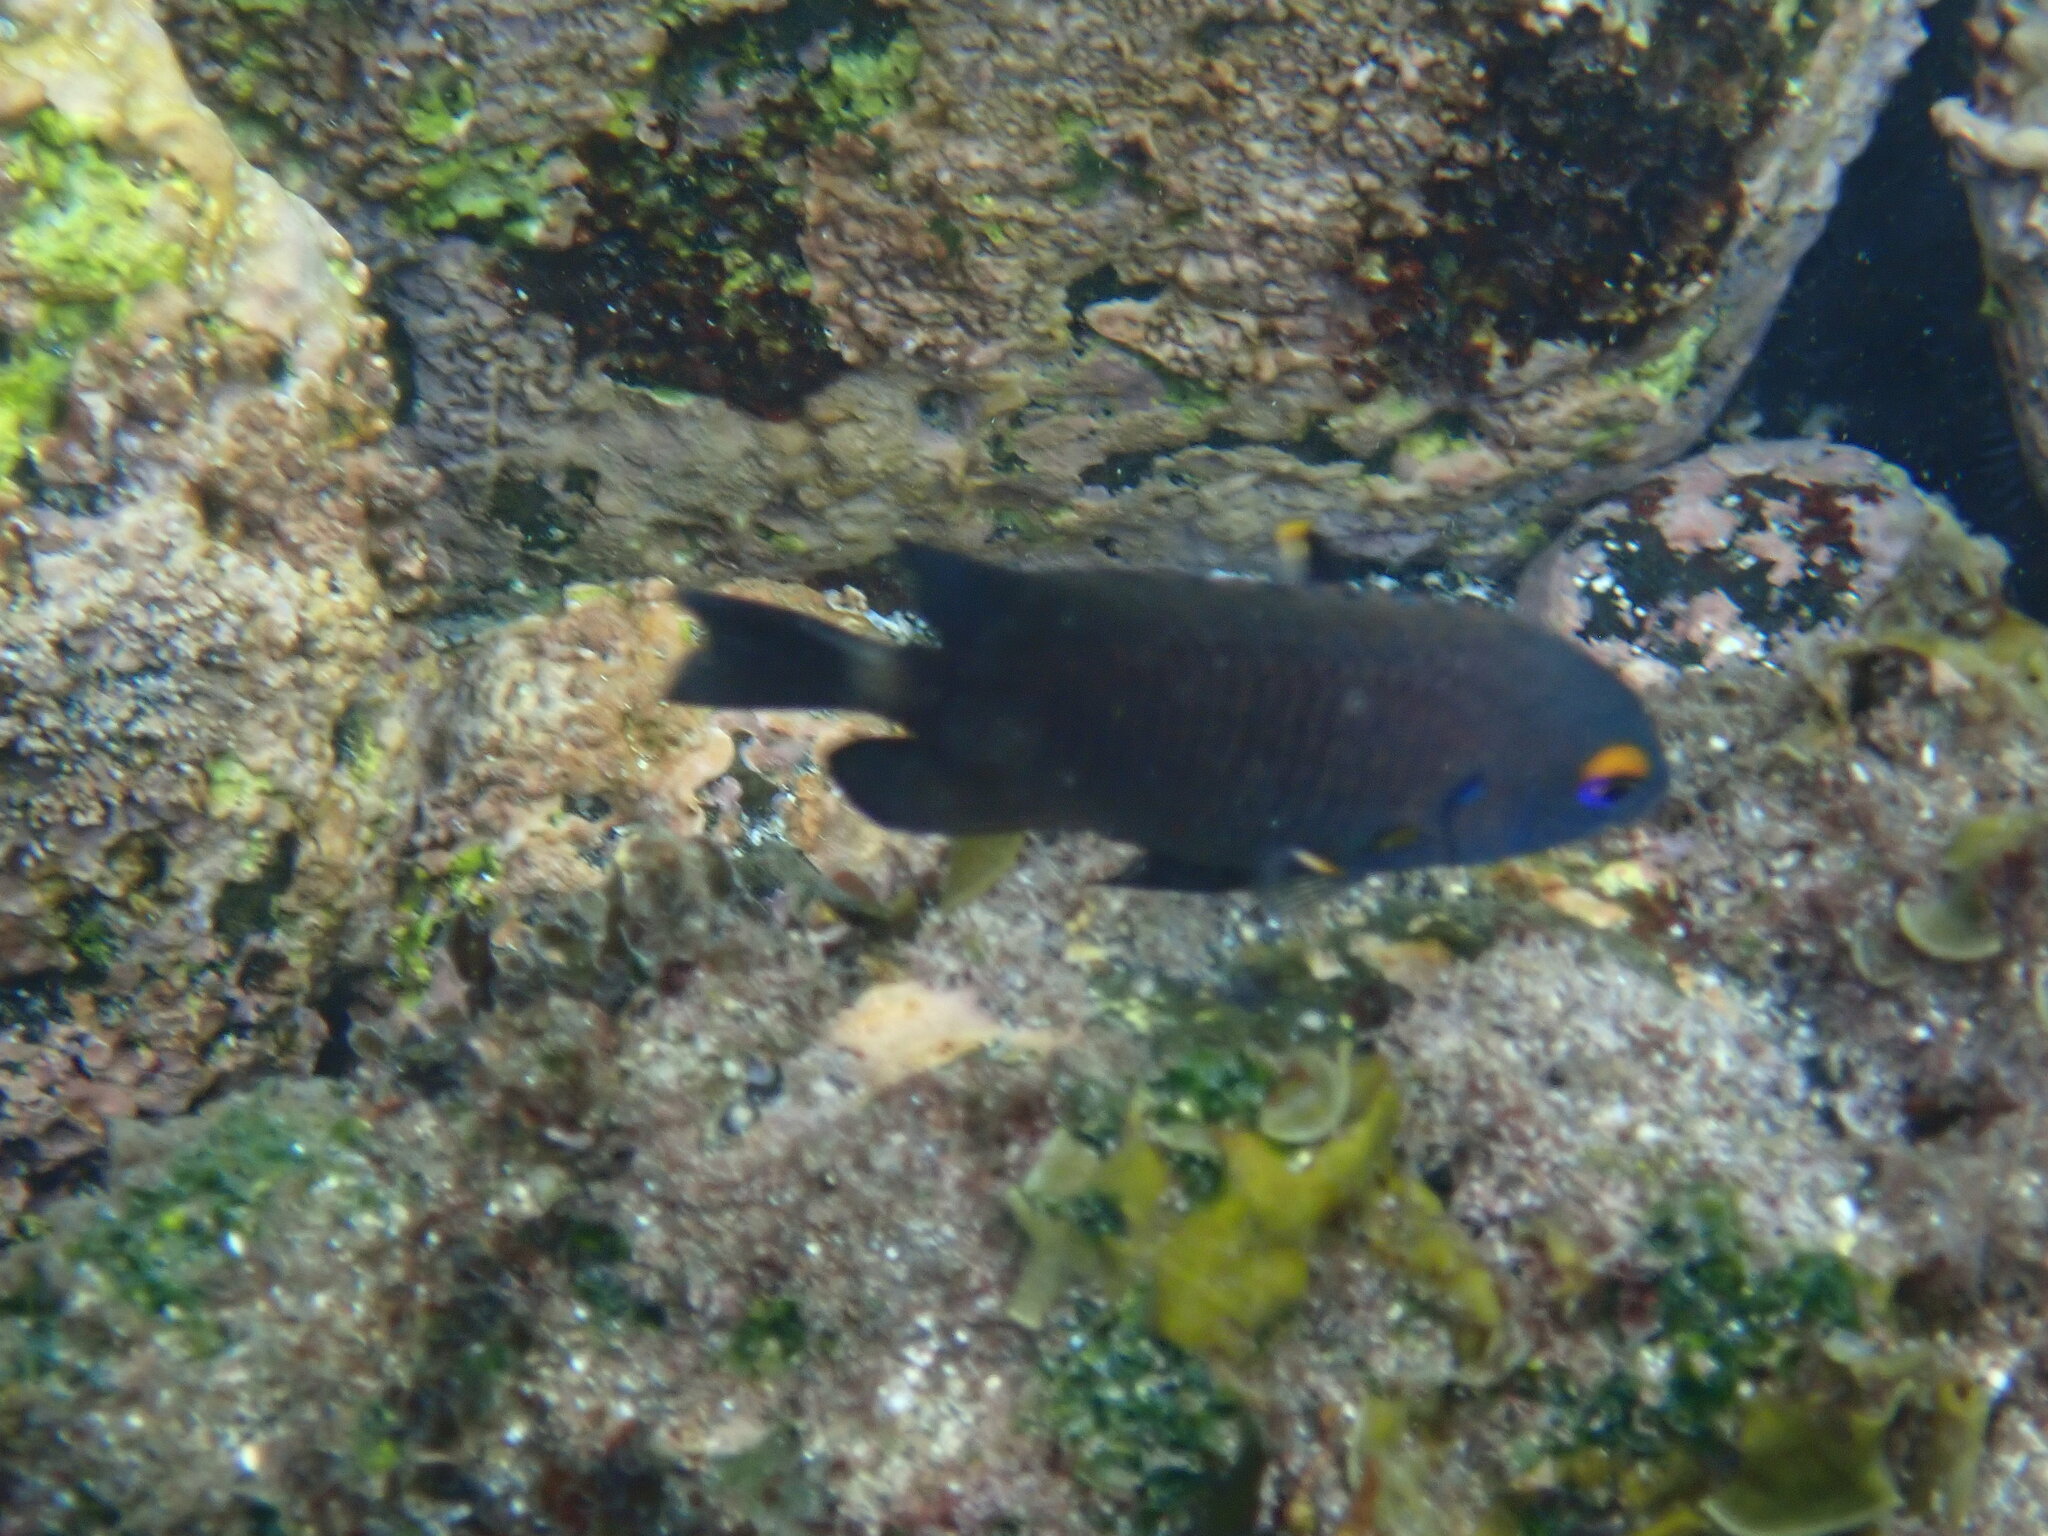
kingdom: Animalia
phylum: Chordata
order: Perciformes
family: Pomacentridae
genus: Stegastes
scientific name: Stegastes beebei
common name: Galapagos ringtail damselfish
